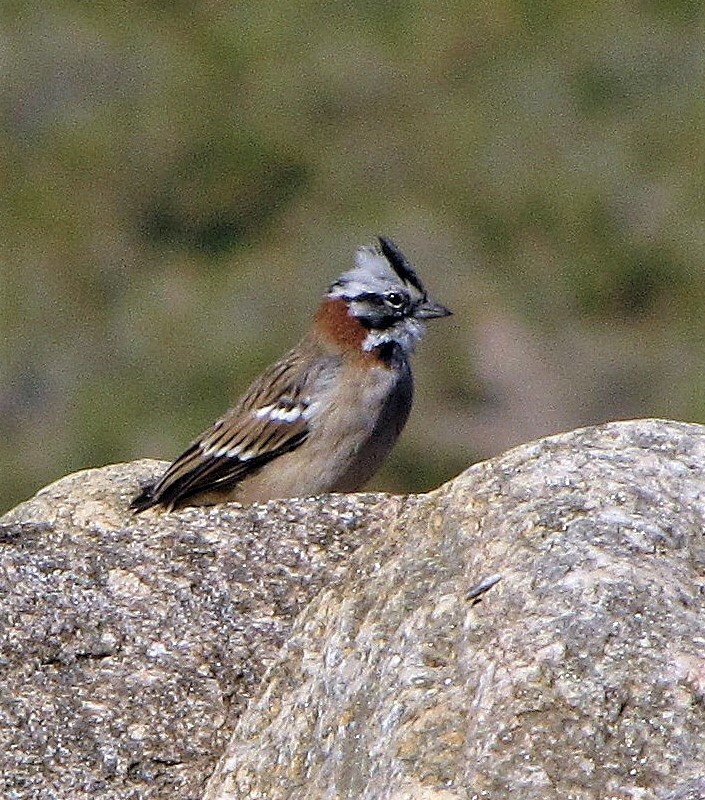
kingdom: Animalia
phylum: Chordata
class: Aves
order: Passeriformes
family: Passerellidae
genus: Zonotrichia
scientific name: Zonotrichia capensis
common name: Rufous-collared sparrow
